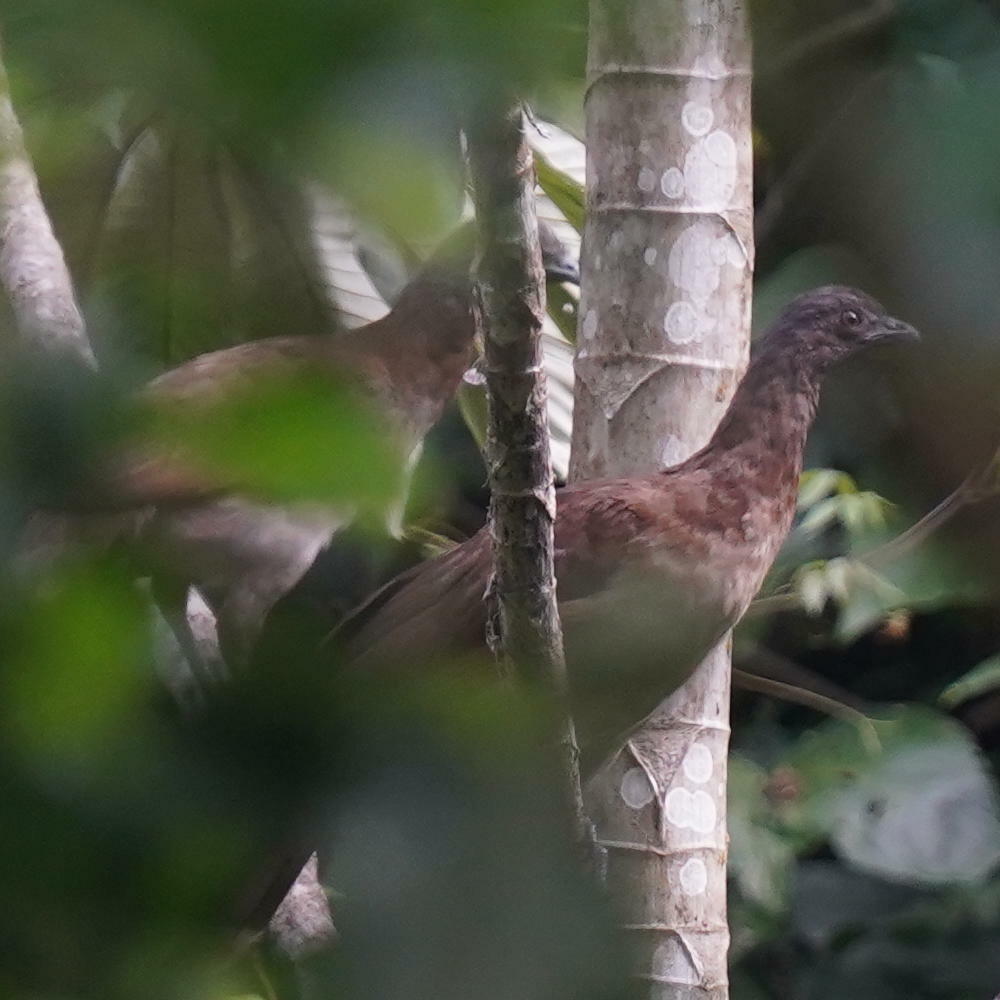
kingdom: Animalia
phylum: Chordata
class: Aves
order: Galliformes
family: Cracidae
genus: Ortalis
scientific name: Ortalis cinereiceps
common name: Grey-headed chachalaca
